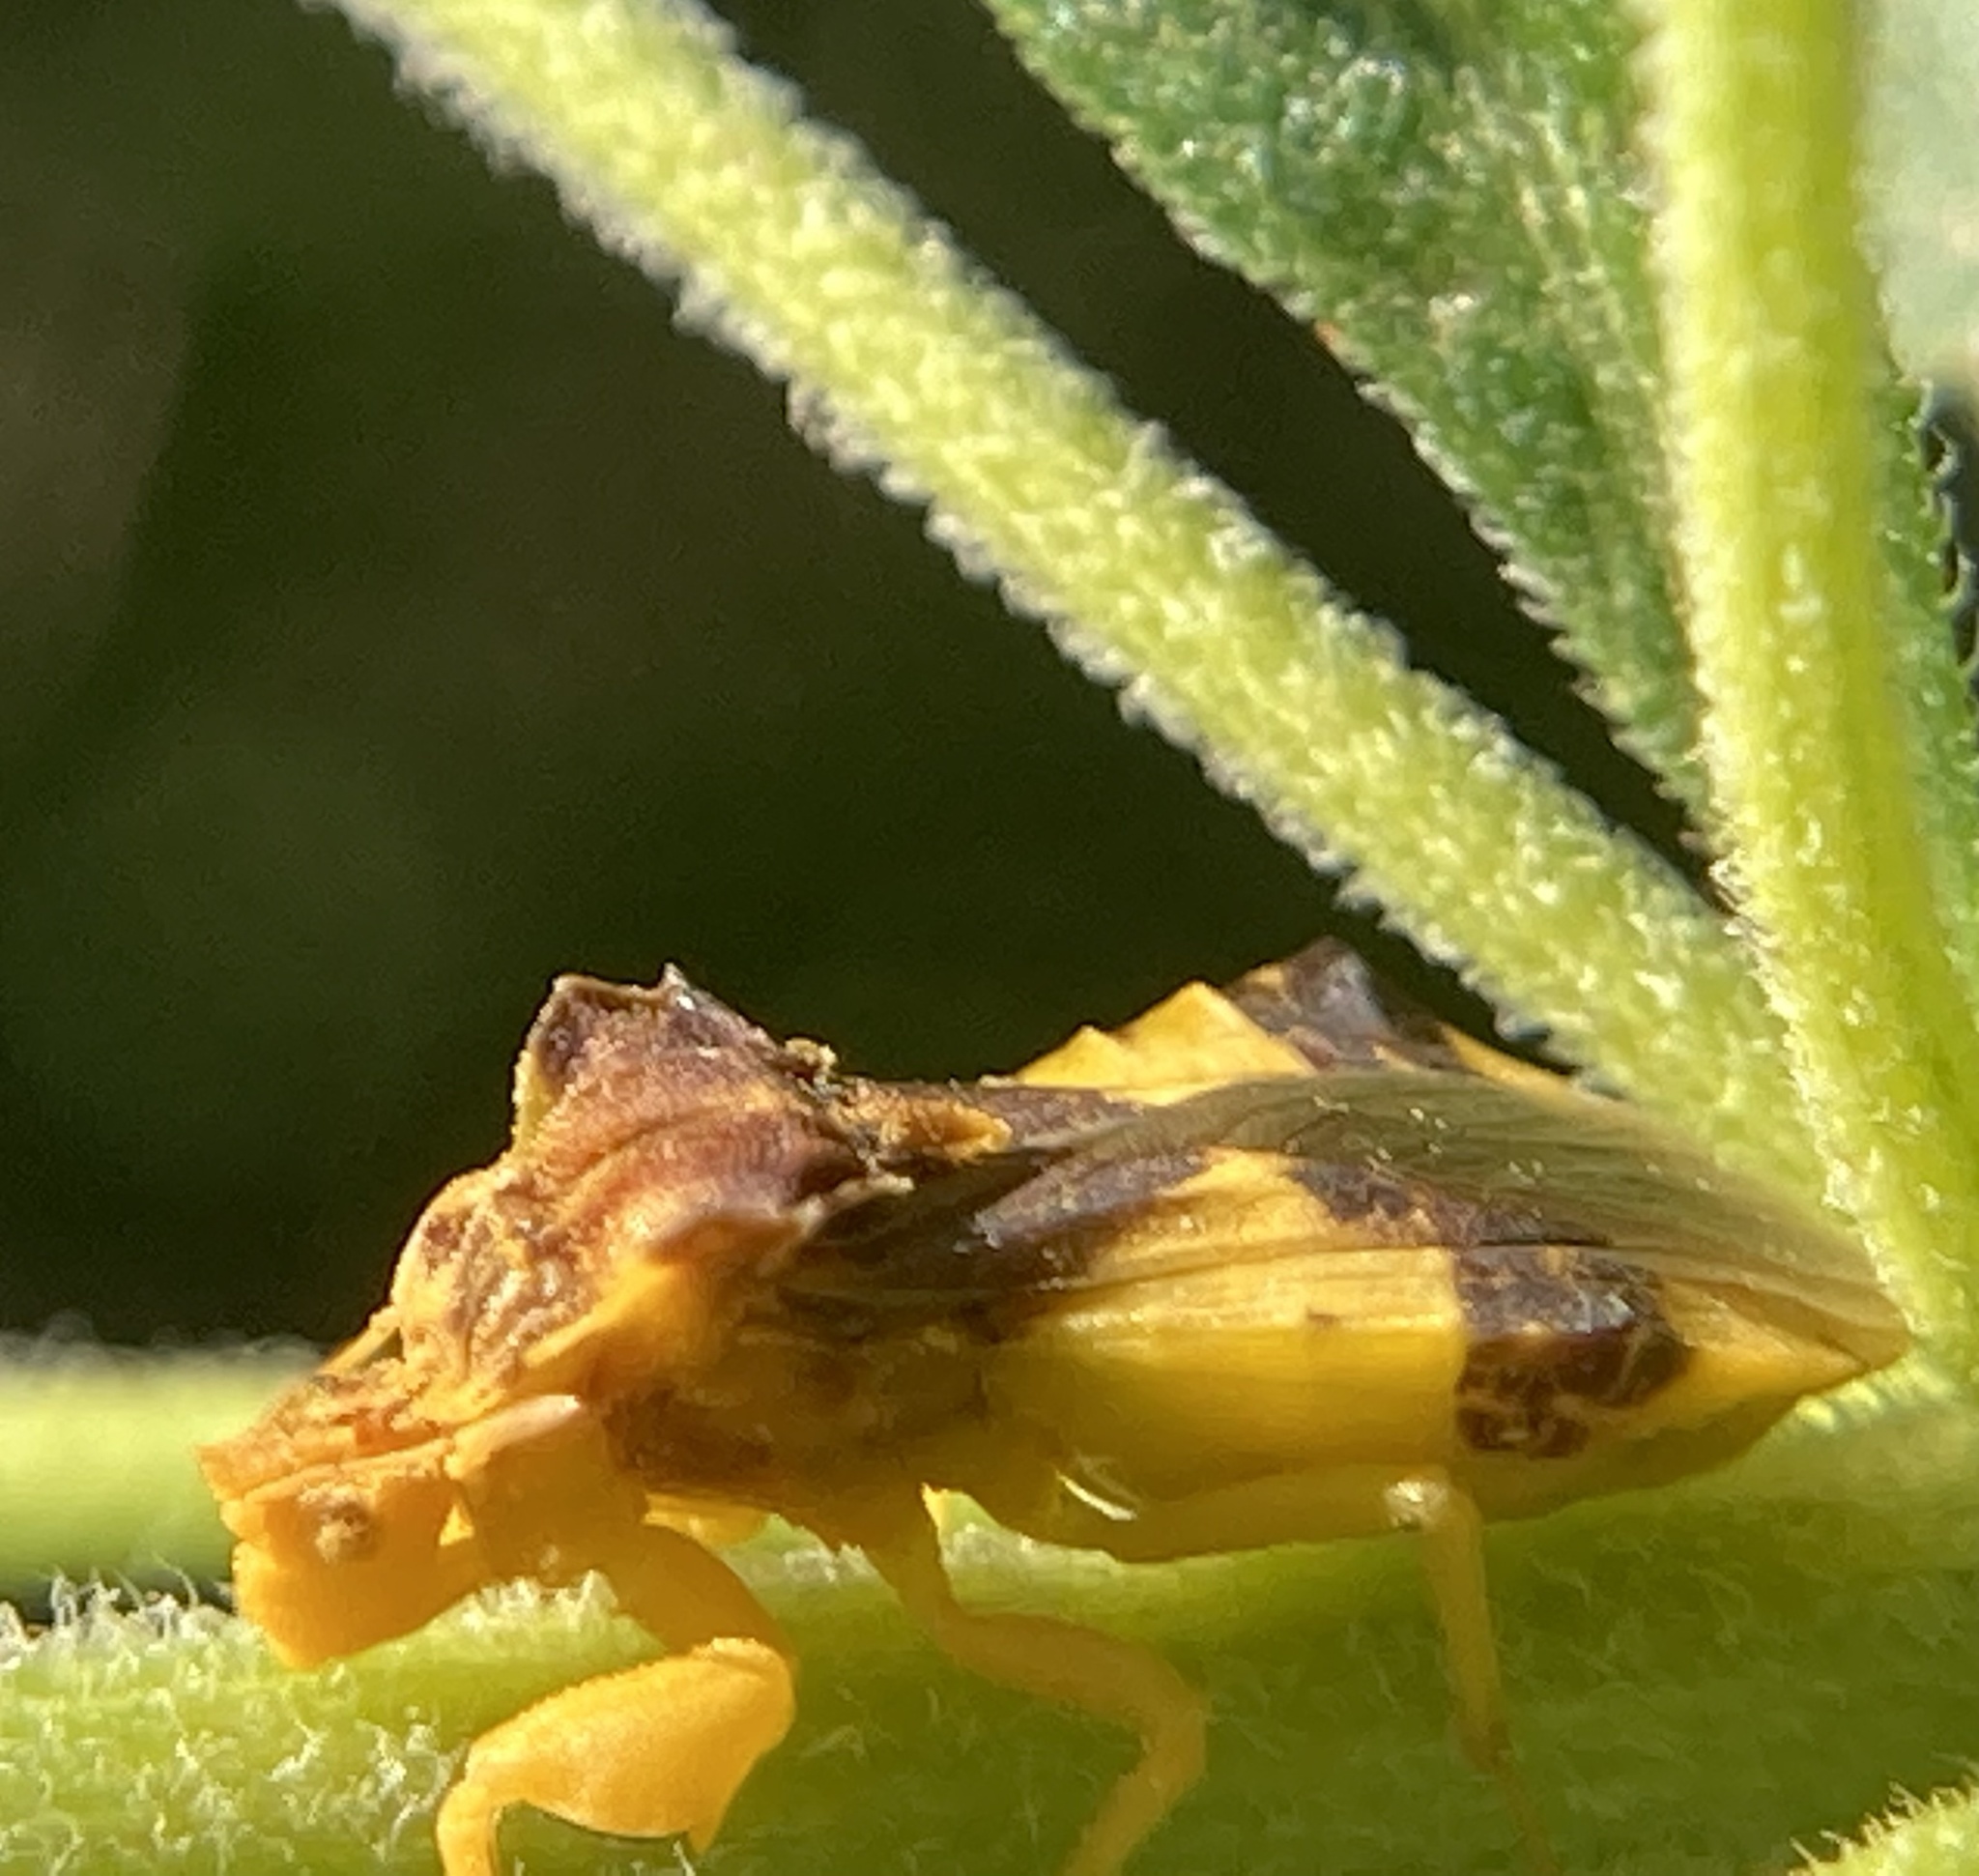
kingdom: Animalia
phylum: Arthropoda
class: Insecta
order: Hemiptera
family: Reduviidae
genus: Phymata
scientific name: Phymata
